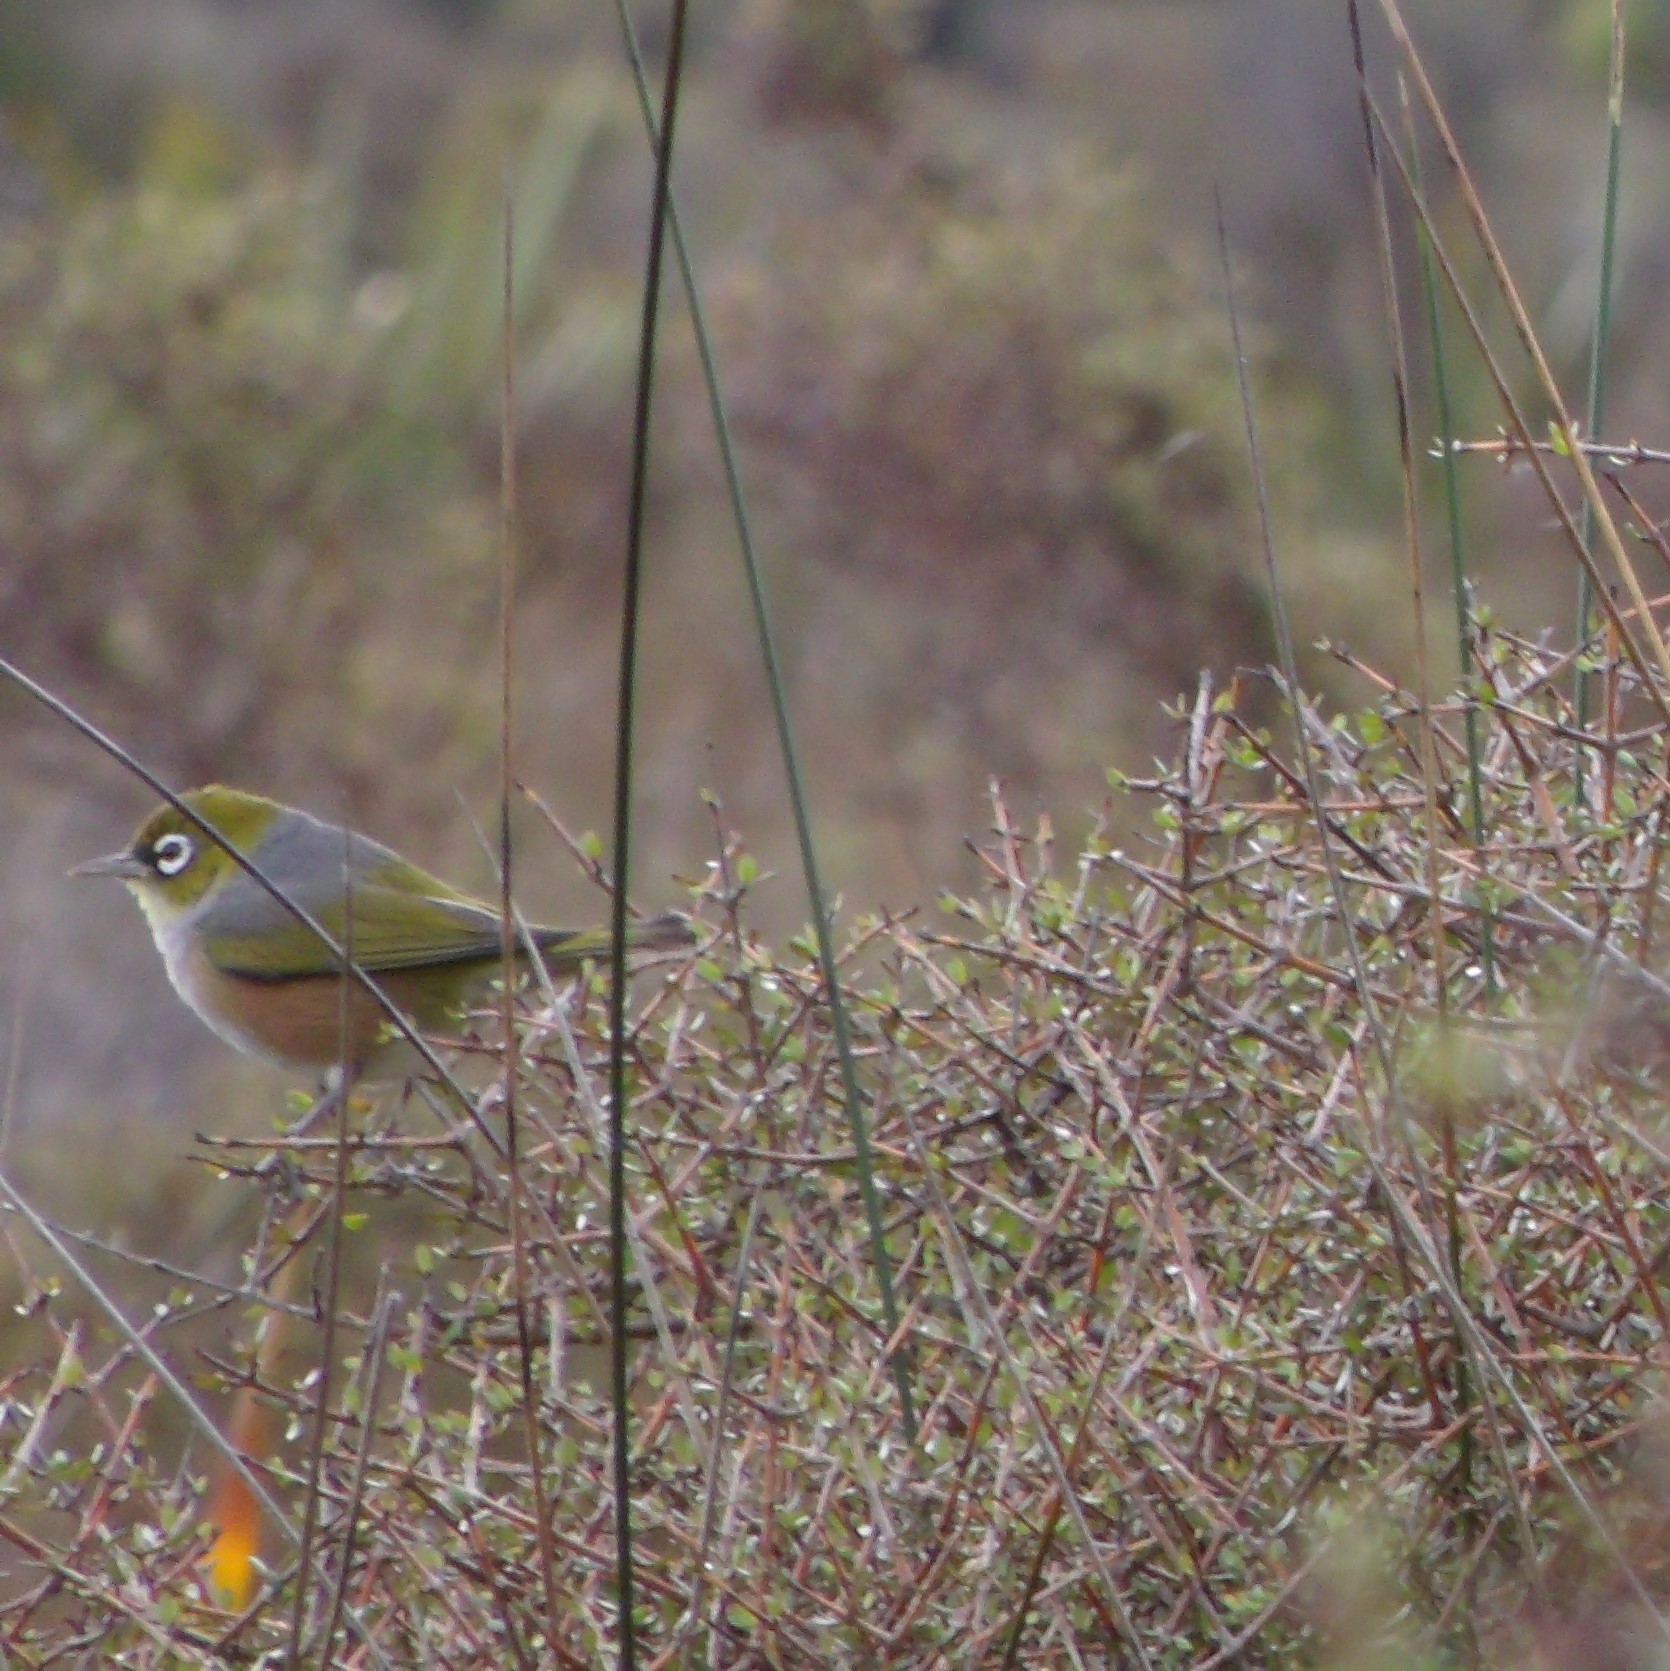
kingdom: Animalia
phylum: Chordata
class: Aves
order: Passeriformes
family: Zosteropidae
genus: Zosterops
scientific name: Zosterops lateralis
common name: Silvereye
